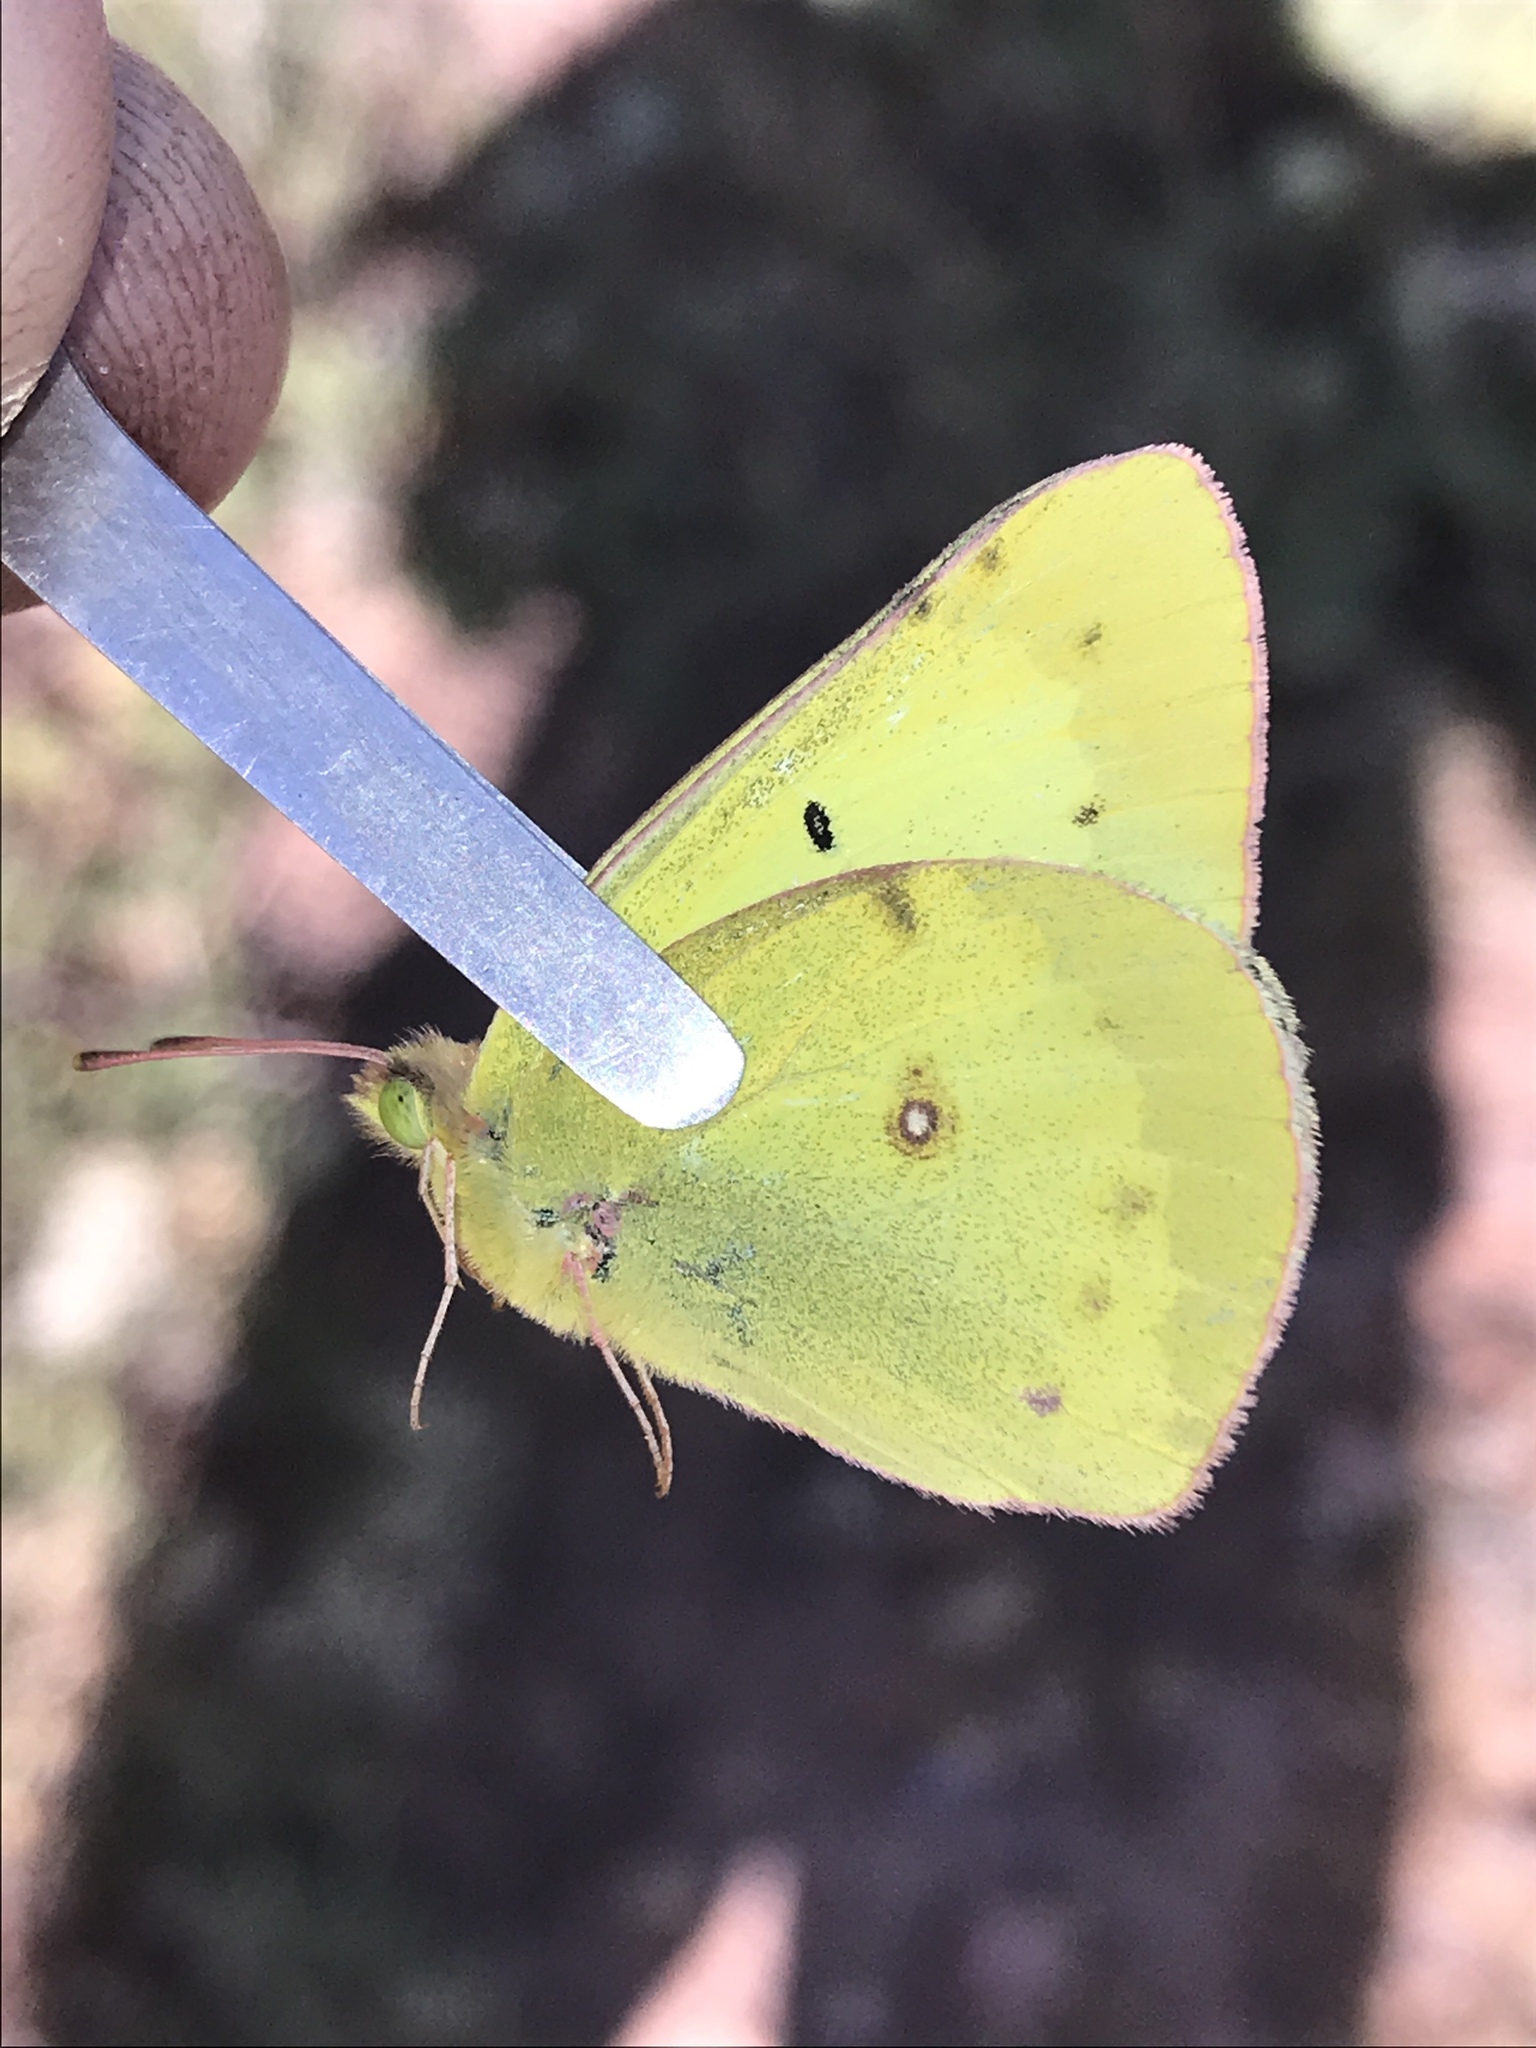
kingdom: Animalia
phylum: Arthropoda
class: Insecta
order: Lepidoptera
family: Pieridae
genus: Colias
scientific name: Colias philodice
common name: Clouded sulphur
